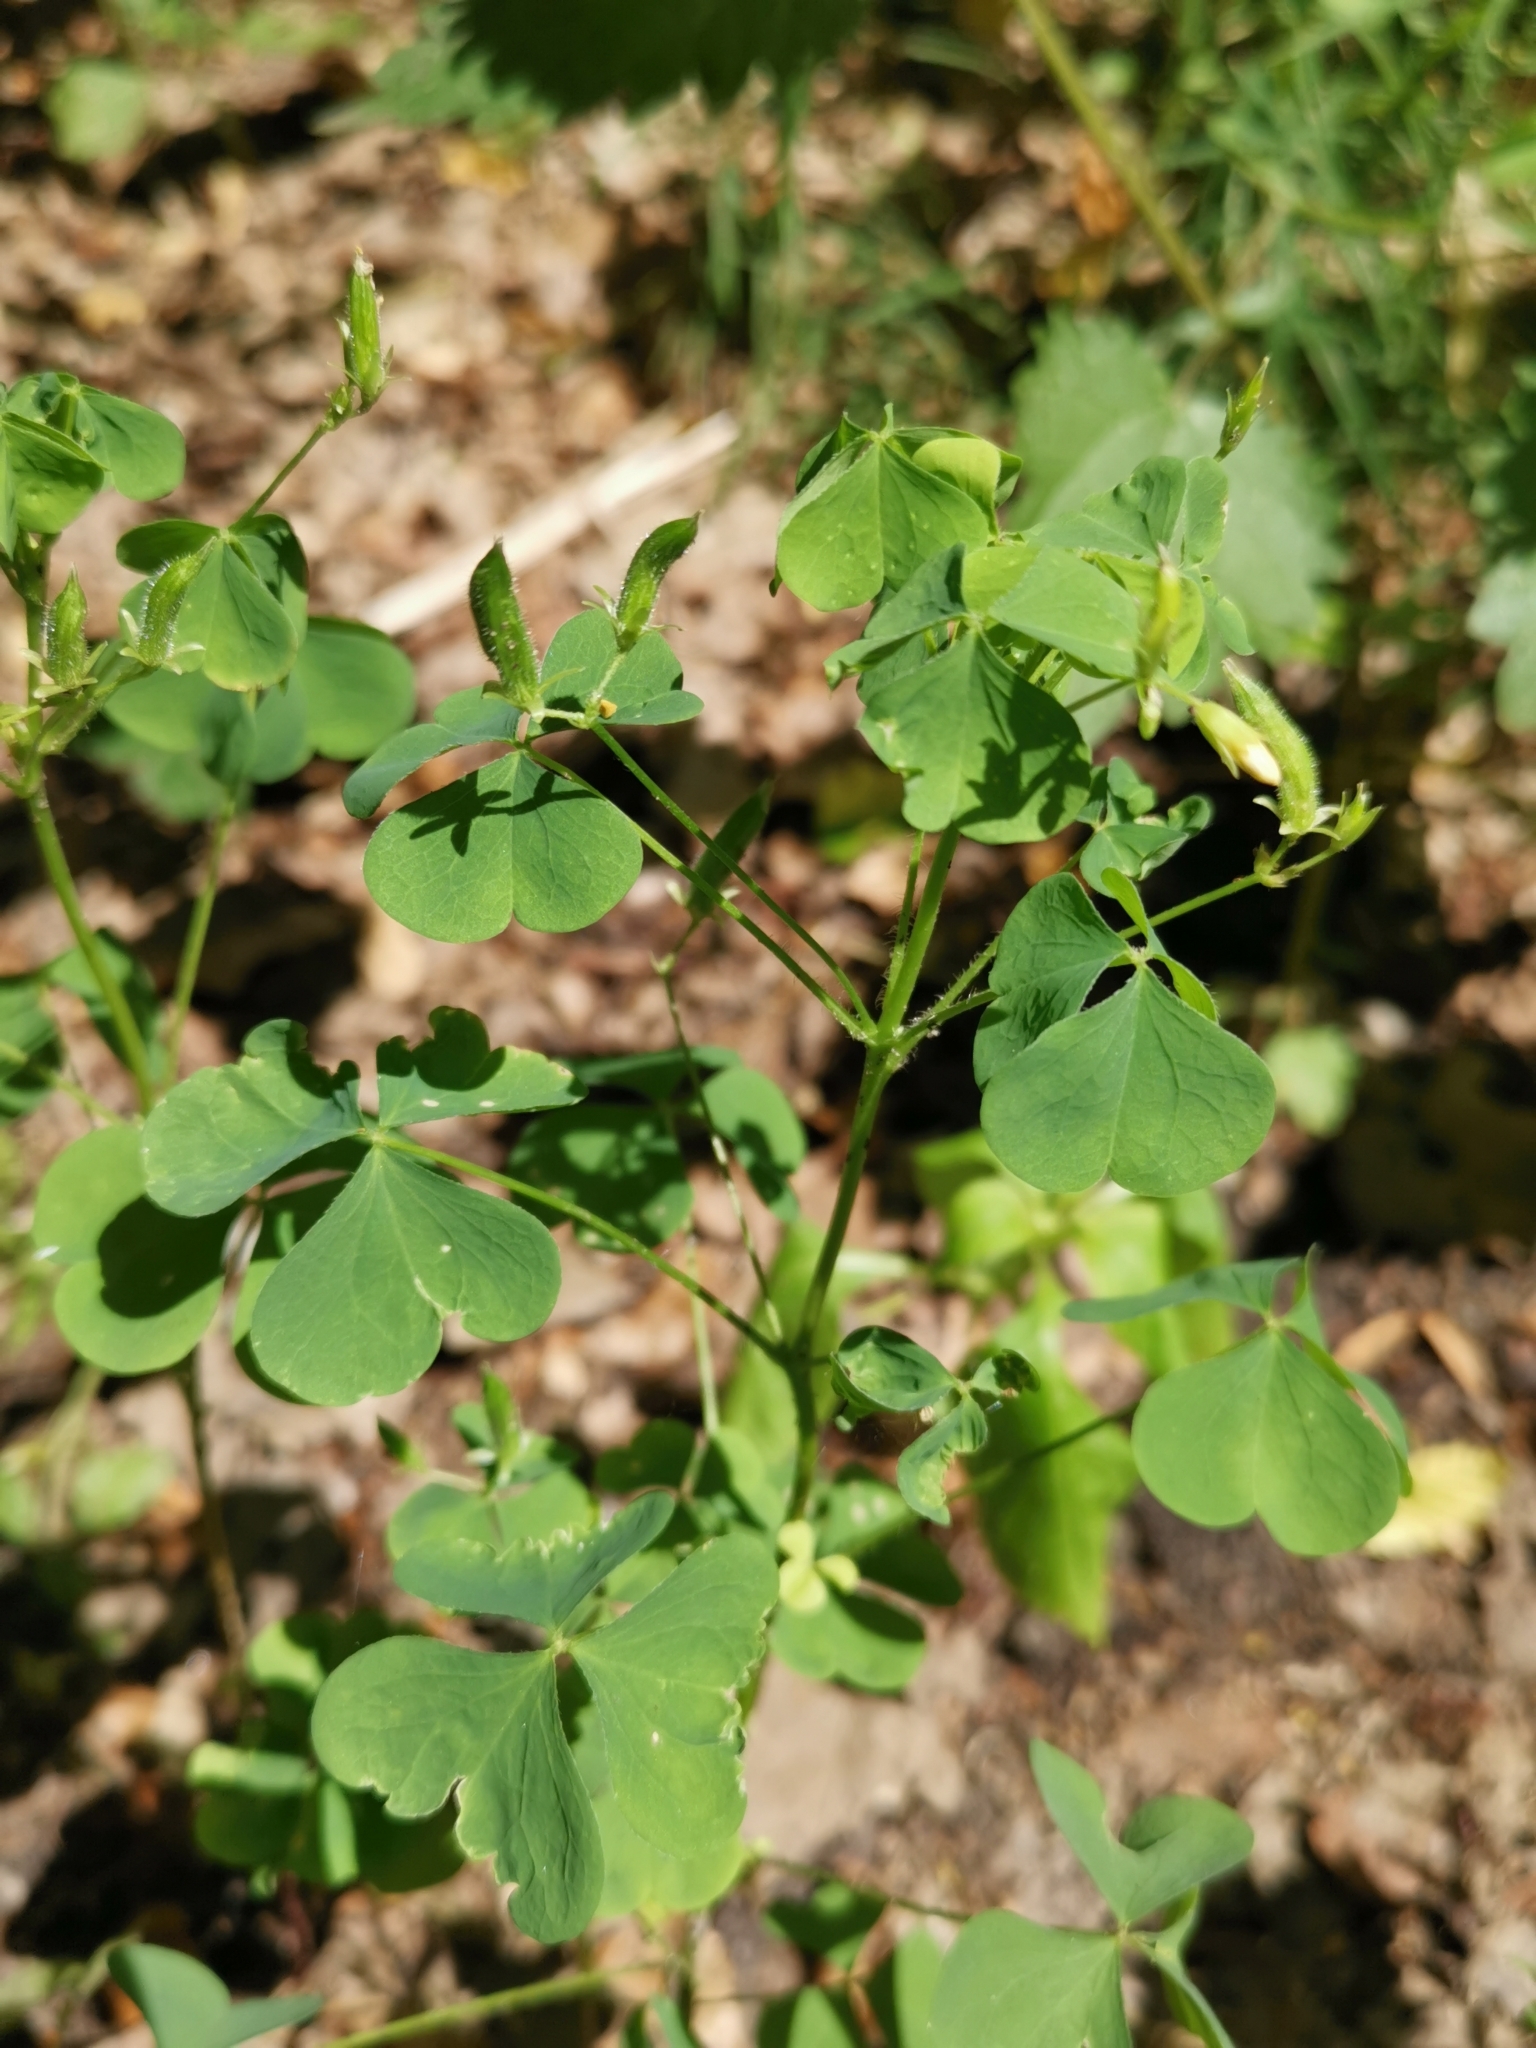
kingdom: Plantae
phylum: Tracheophyta
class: Magnoliopsida
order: Oxalidales
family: Oxalidaceae
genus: Oxalis
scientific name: Oxalis stricta
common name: Upright yellow-sorrel
